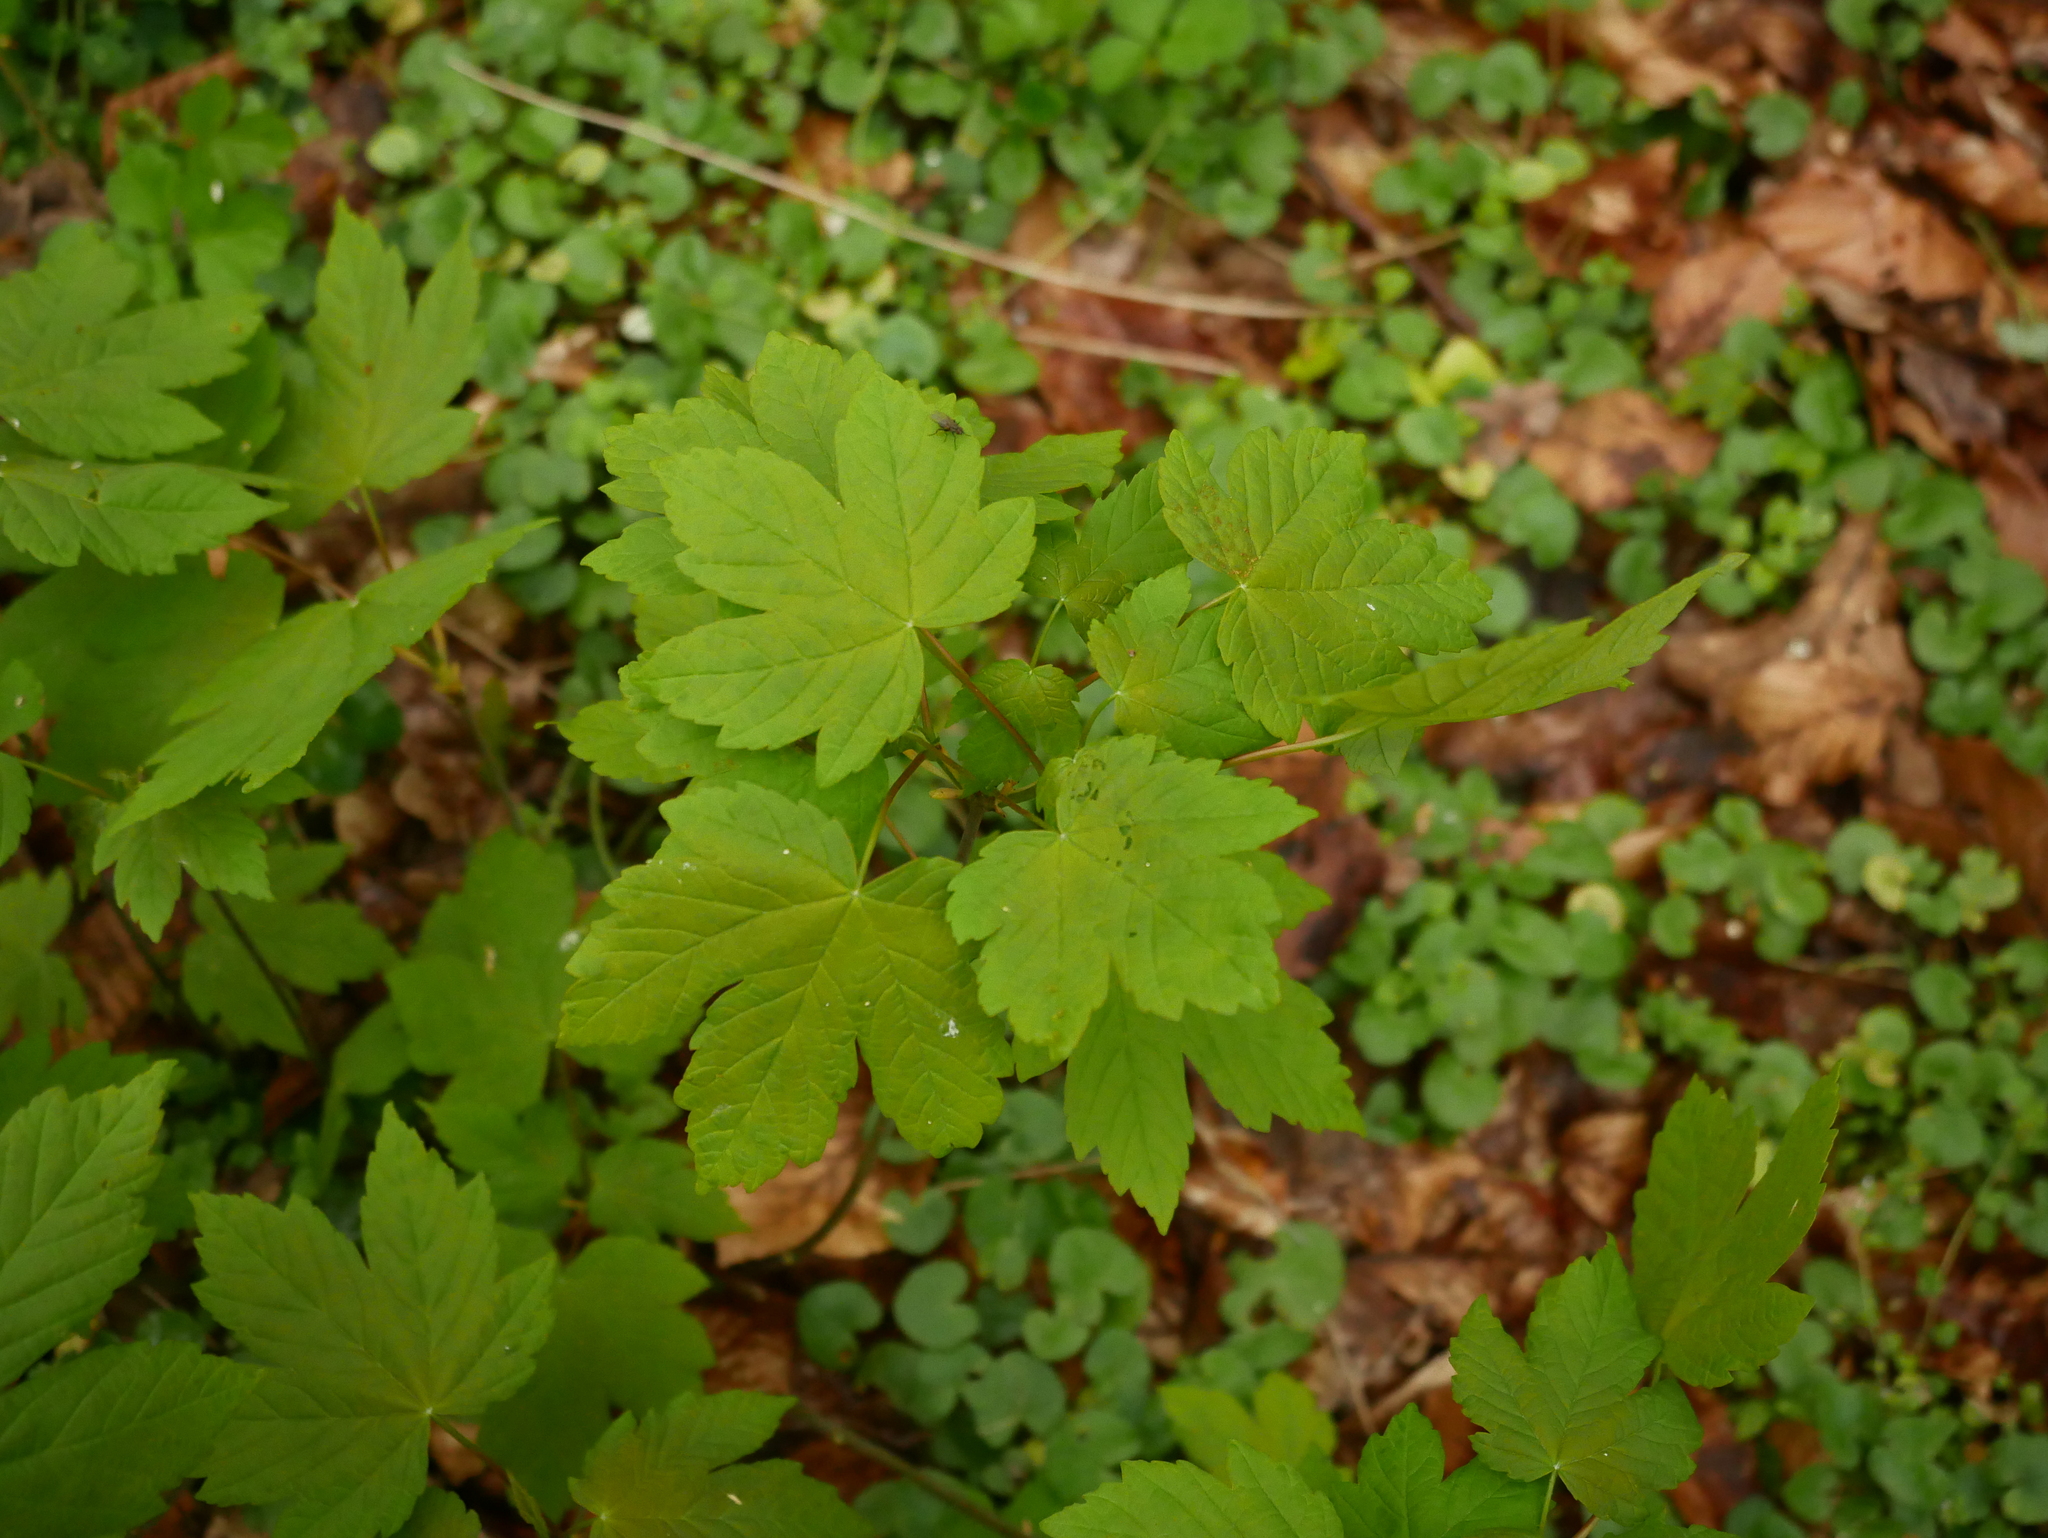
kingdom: Plantae
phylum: Tracheophyta
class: Magnoliopsida
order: Sapindales
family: Sapindaceae
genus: Acer
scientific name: Acer pseudoplatanus
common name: Sycamore
